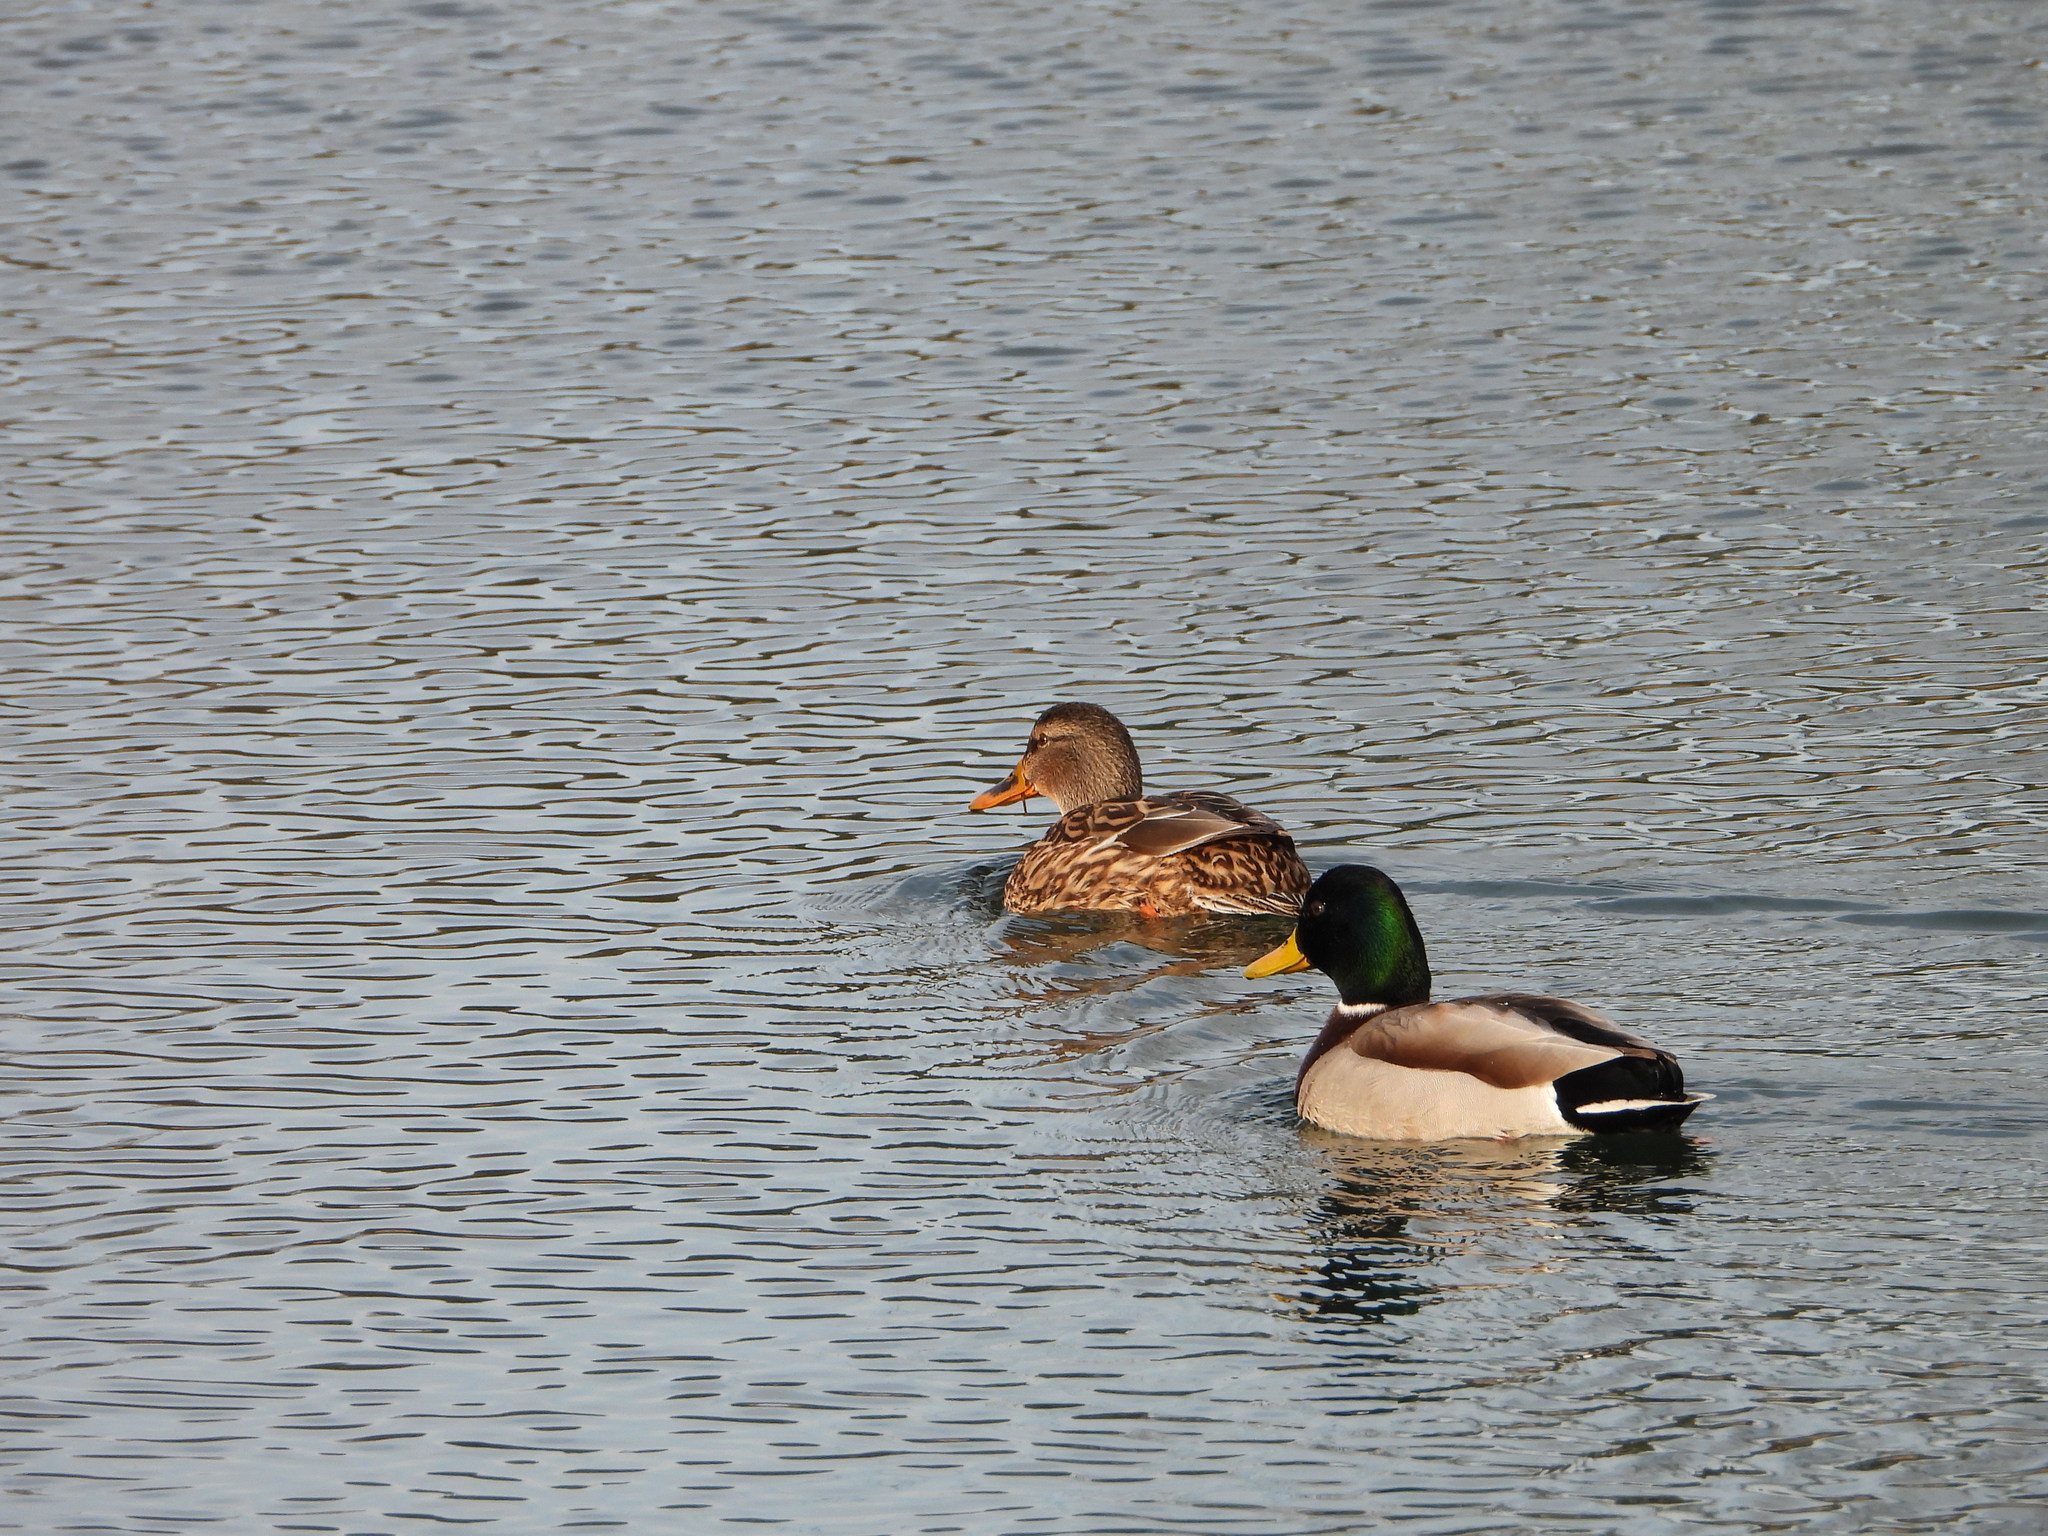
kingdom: Animalia
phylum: Chordata
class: Aves
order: Anseriformes
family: Anatidae
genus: Anas
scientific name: Anas platyrhynchos
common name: Mallard
